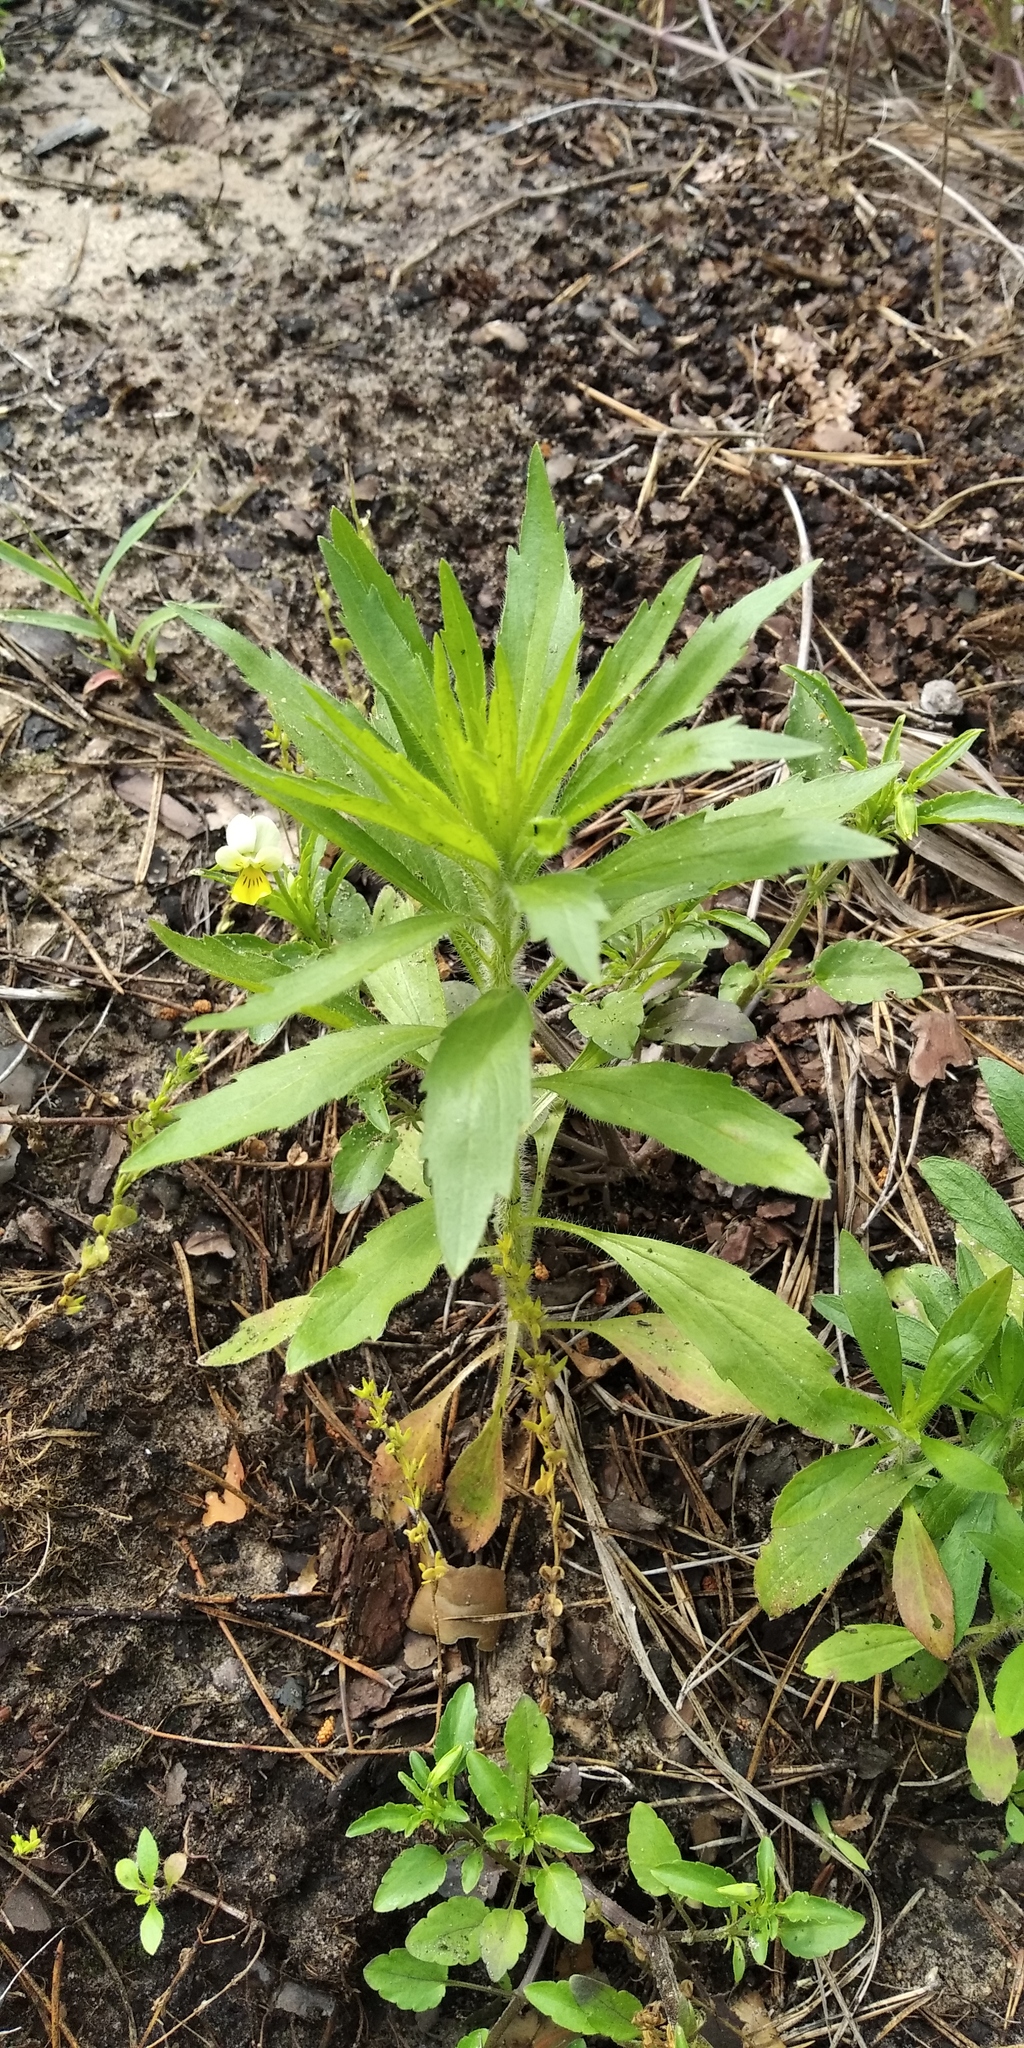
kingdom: Plantae
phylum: Tracheophyta
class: Magnoliopsida
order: Asterales
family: Asteraceae
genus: Erigeron
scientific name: Erigeron canadensis
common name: Canadian fleabane
